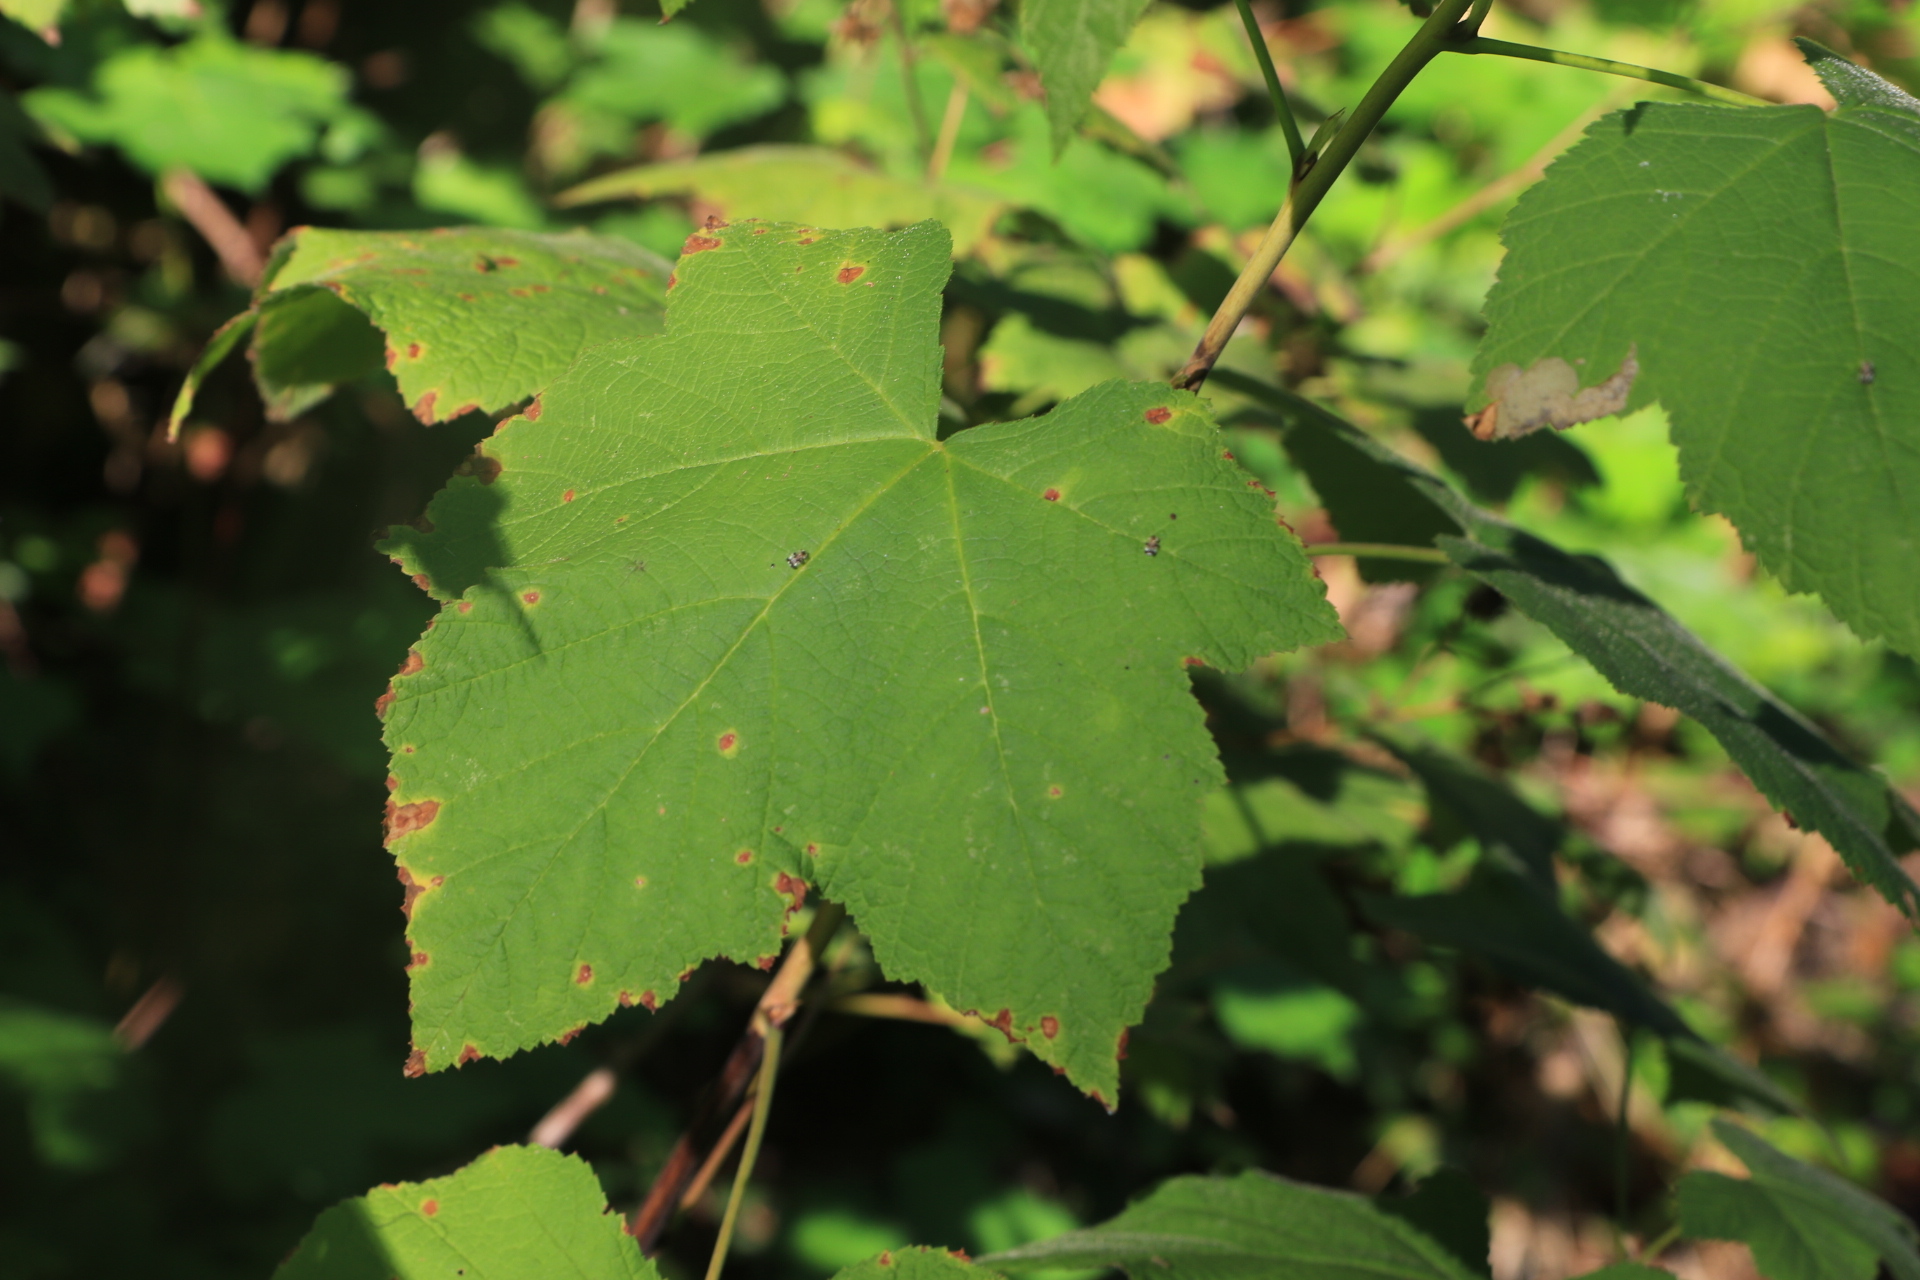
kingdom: Plantae
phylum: Tracheophyta
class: Magnoliopsida
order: Rosales
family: Rosaceae
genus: Rubus
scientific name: Rubus parviflorus
